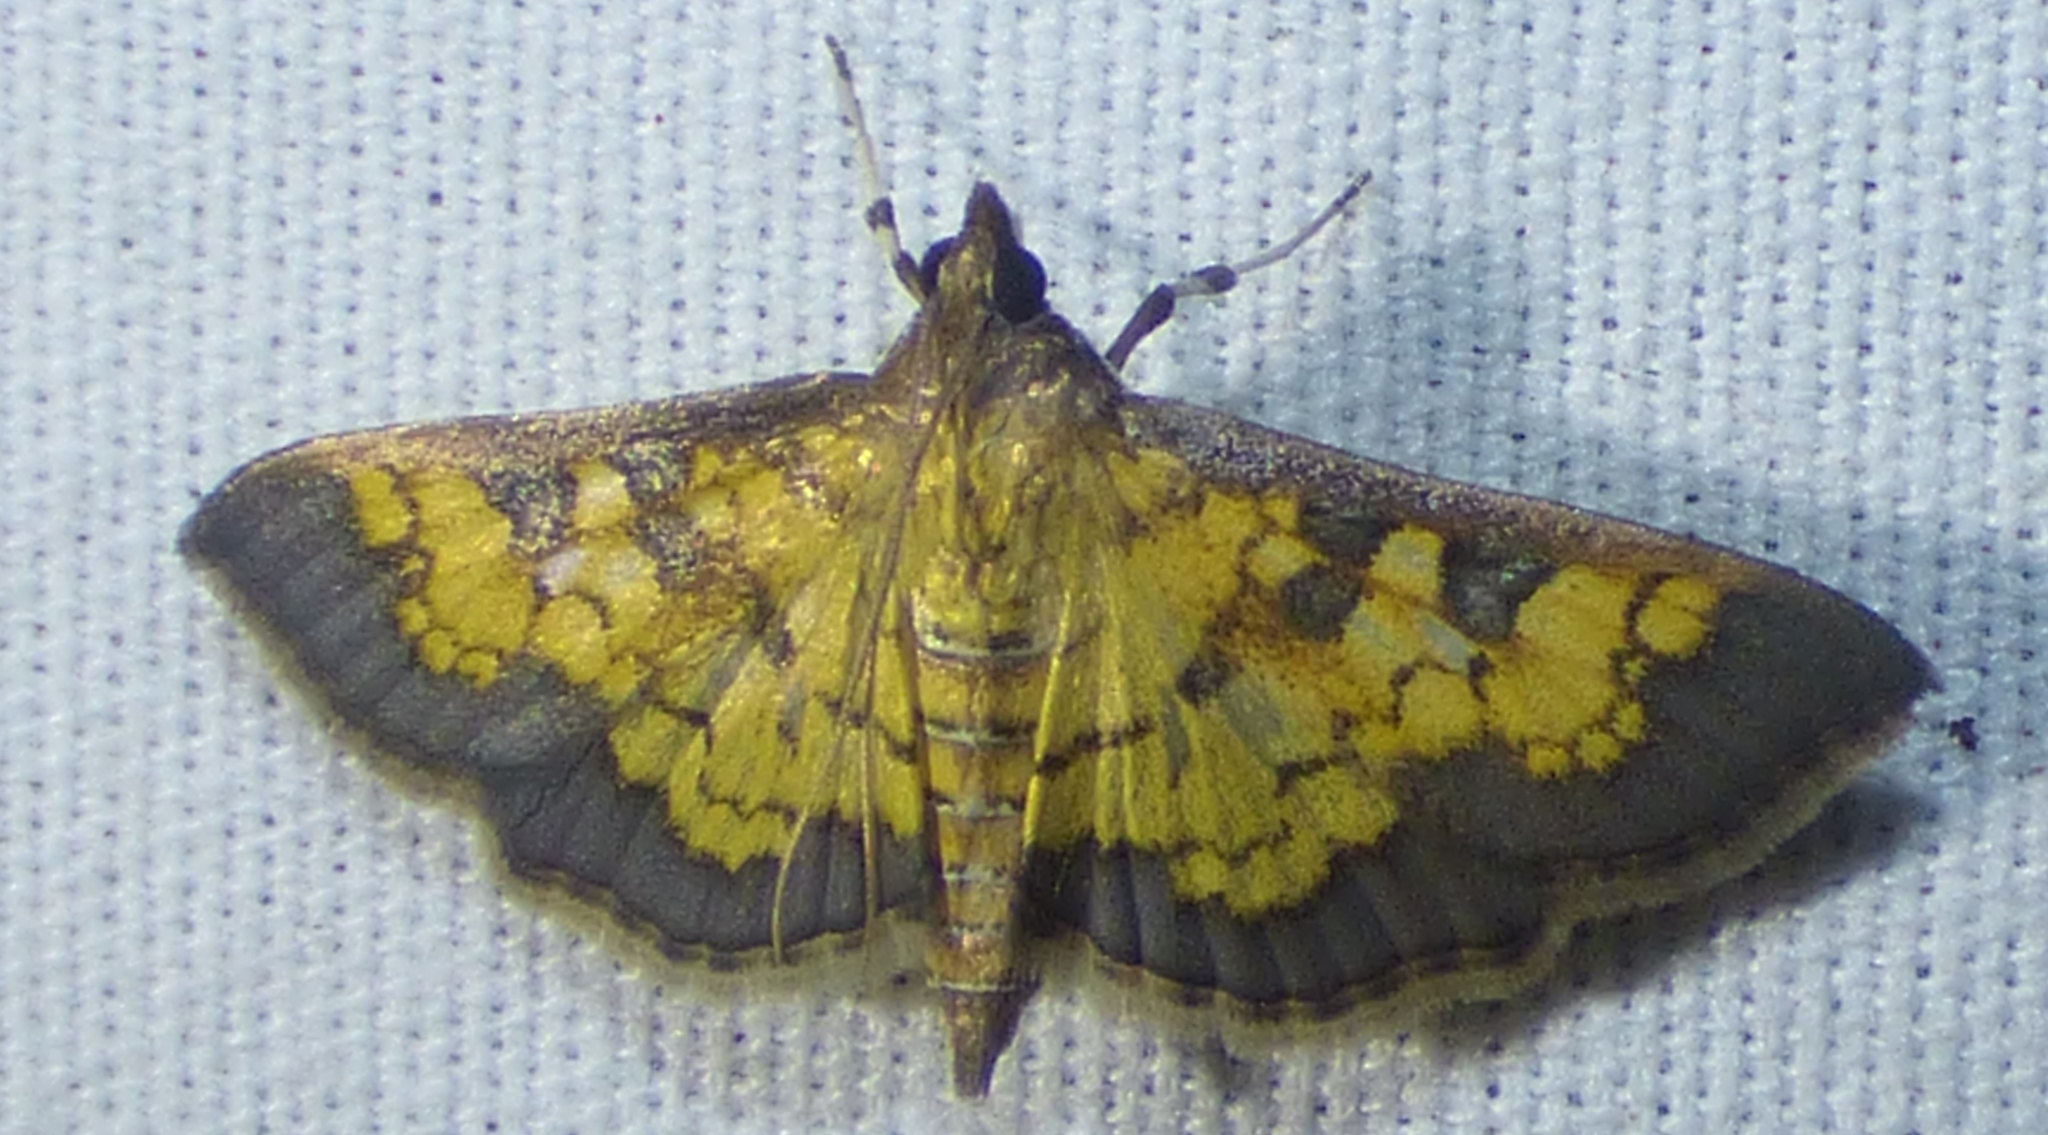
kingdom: Animalia
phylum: Arthropoda
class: Insecta
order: Lepidoptera
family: Crambidae
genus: Epipagis
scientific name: Epipagis adipaloides
